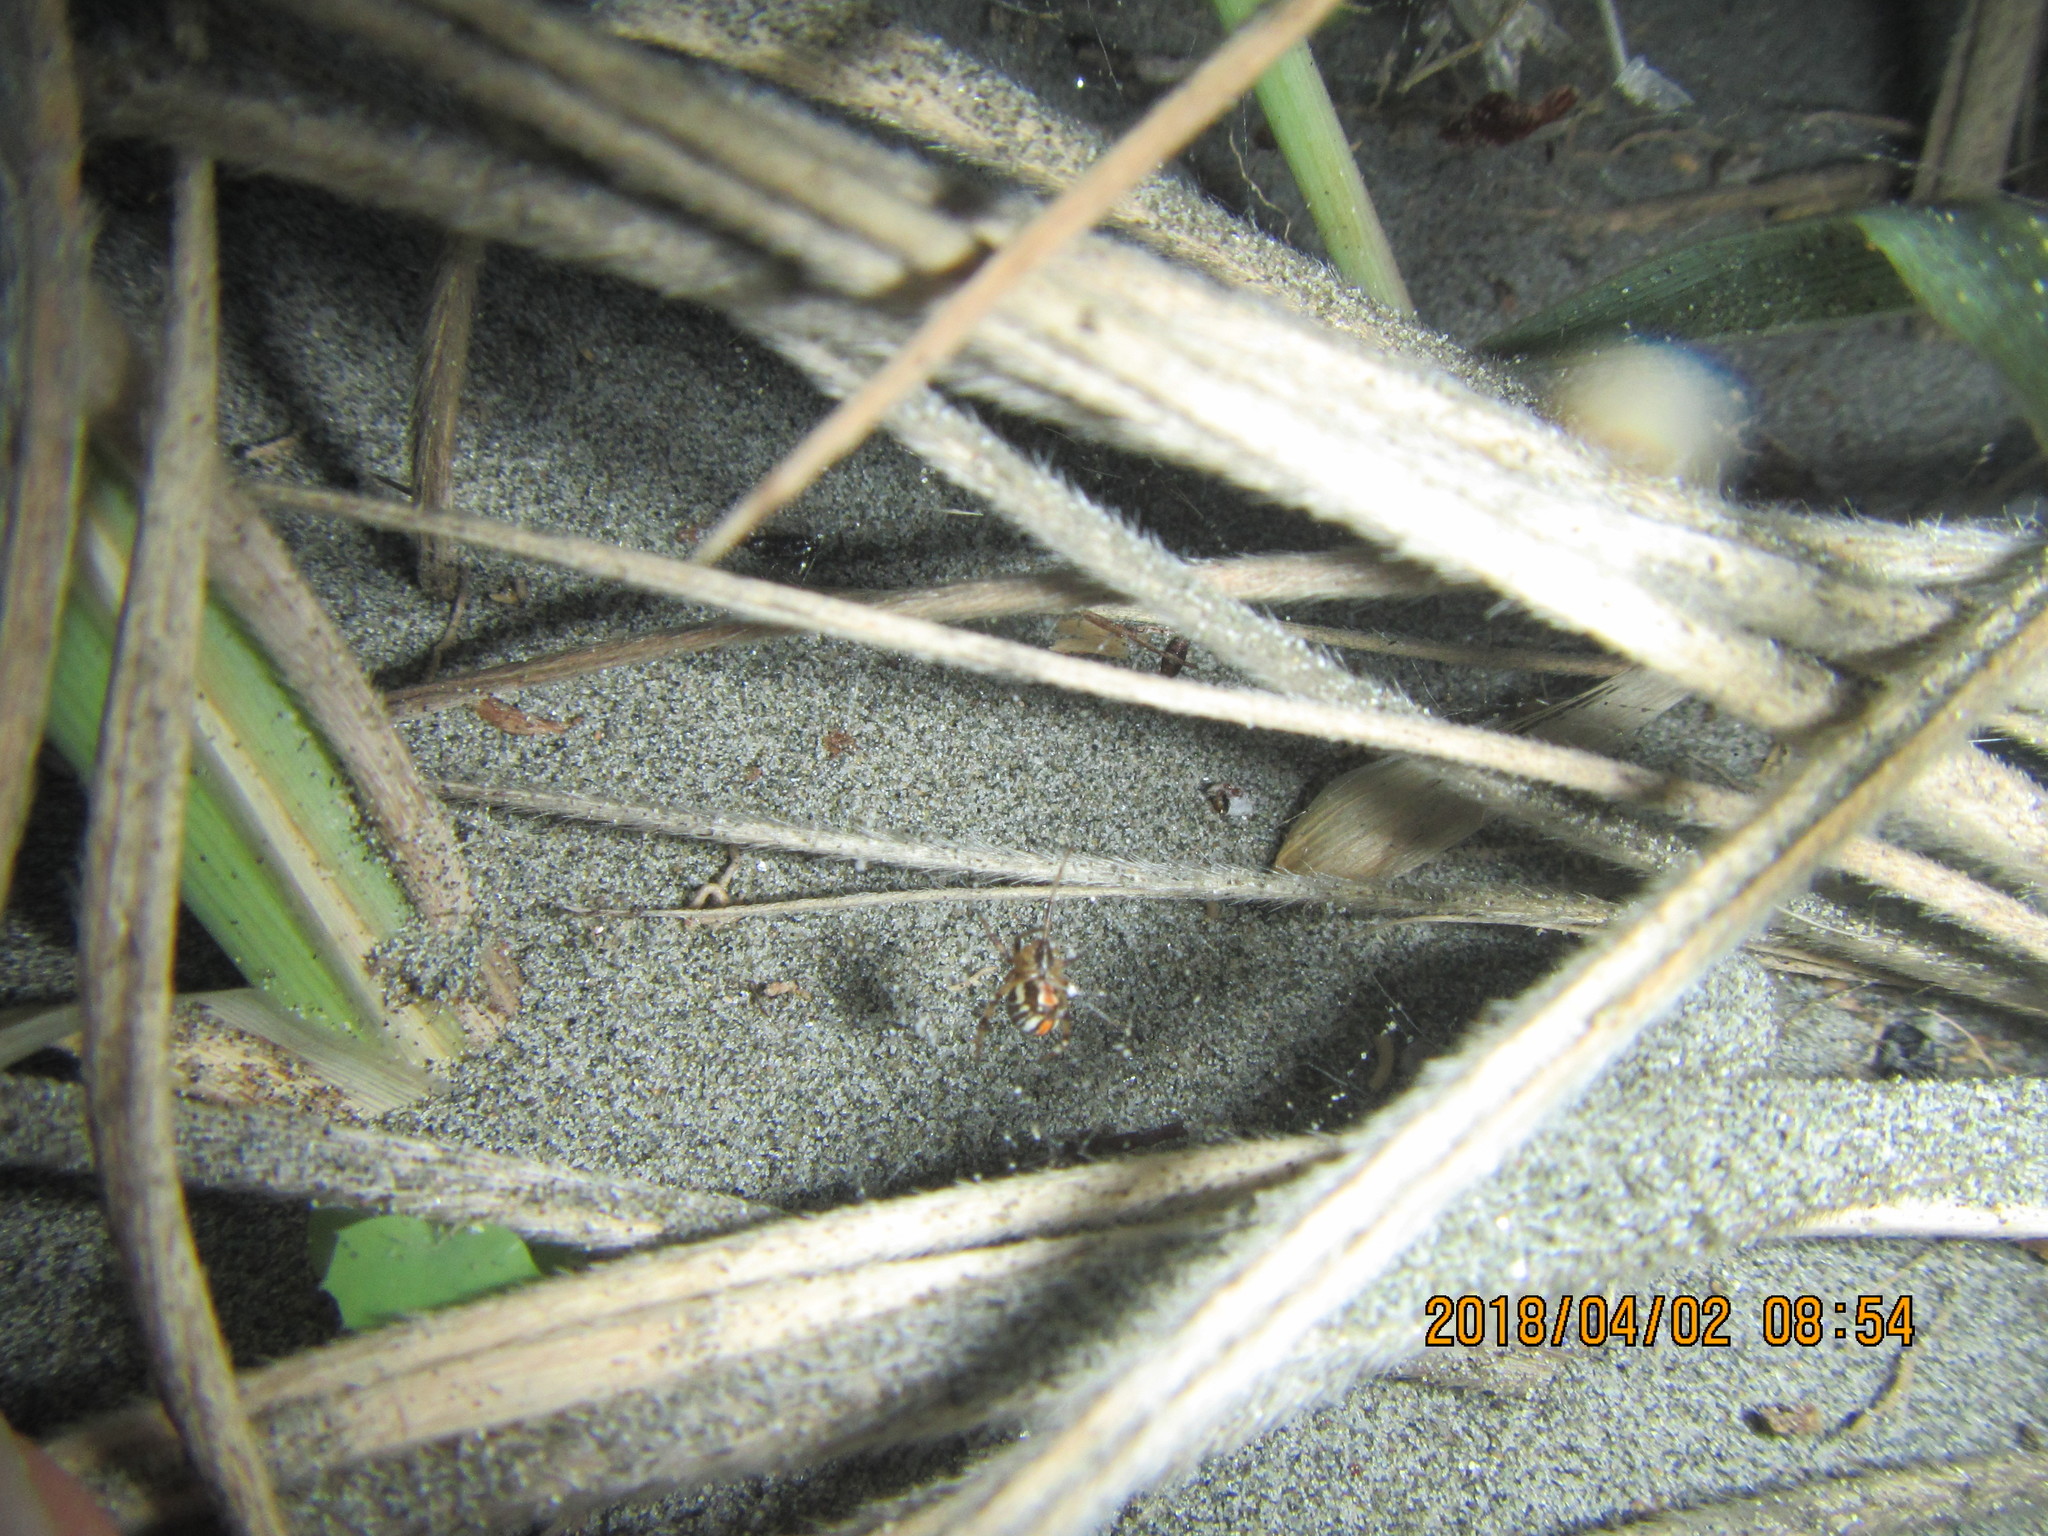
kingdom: Animalia
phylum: Arthropoda
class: Arachnida
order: Araneae
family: Theridiidae
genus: Latrodectus
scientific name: Latrodectus katipo
